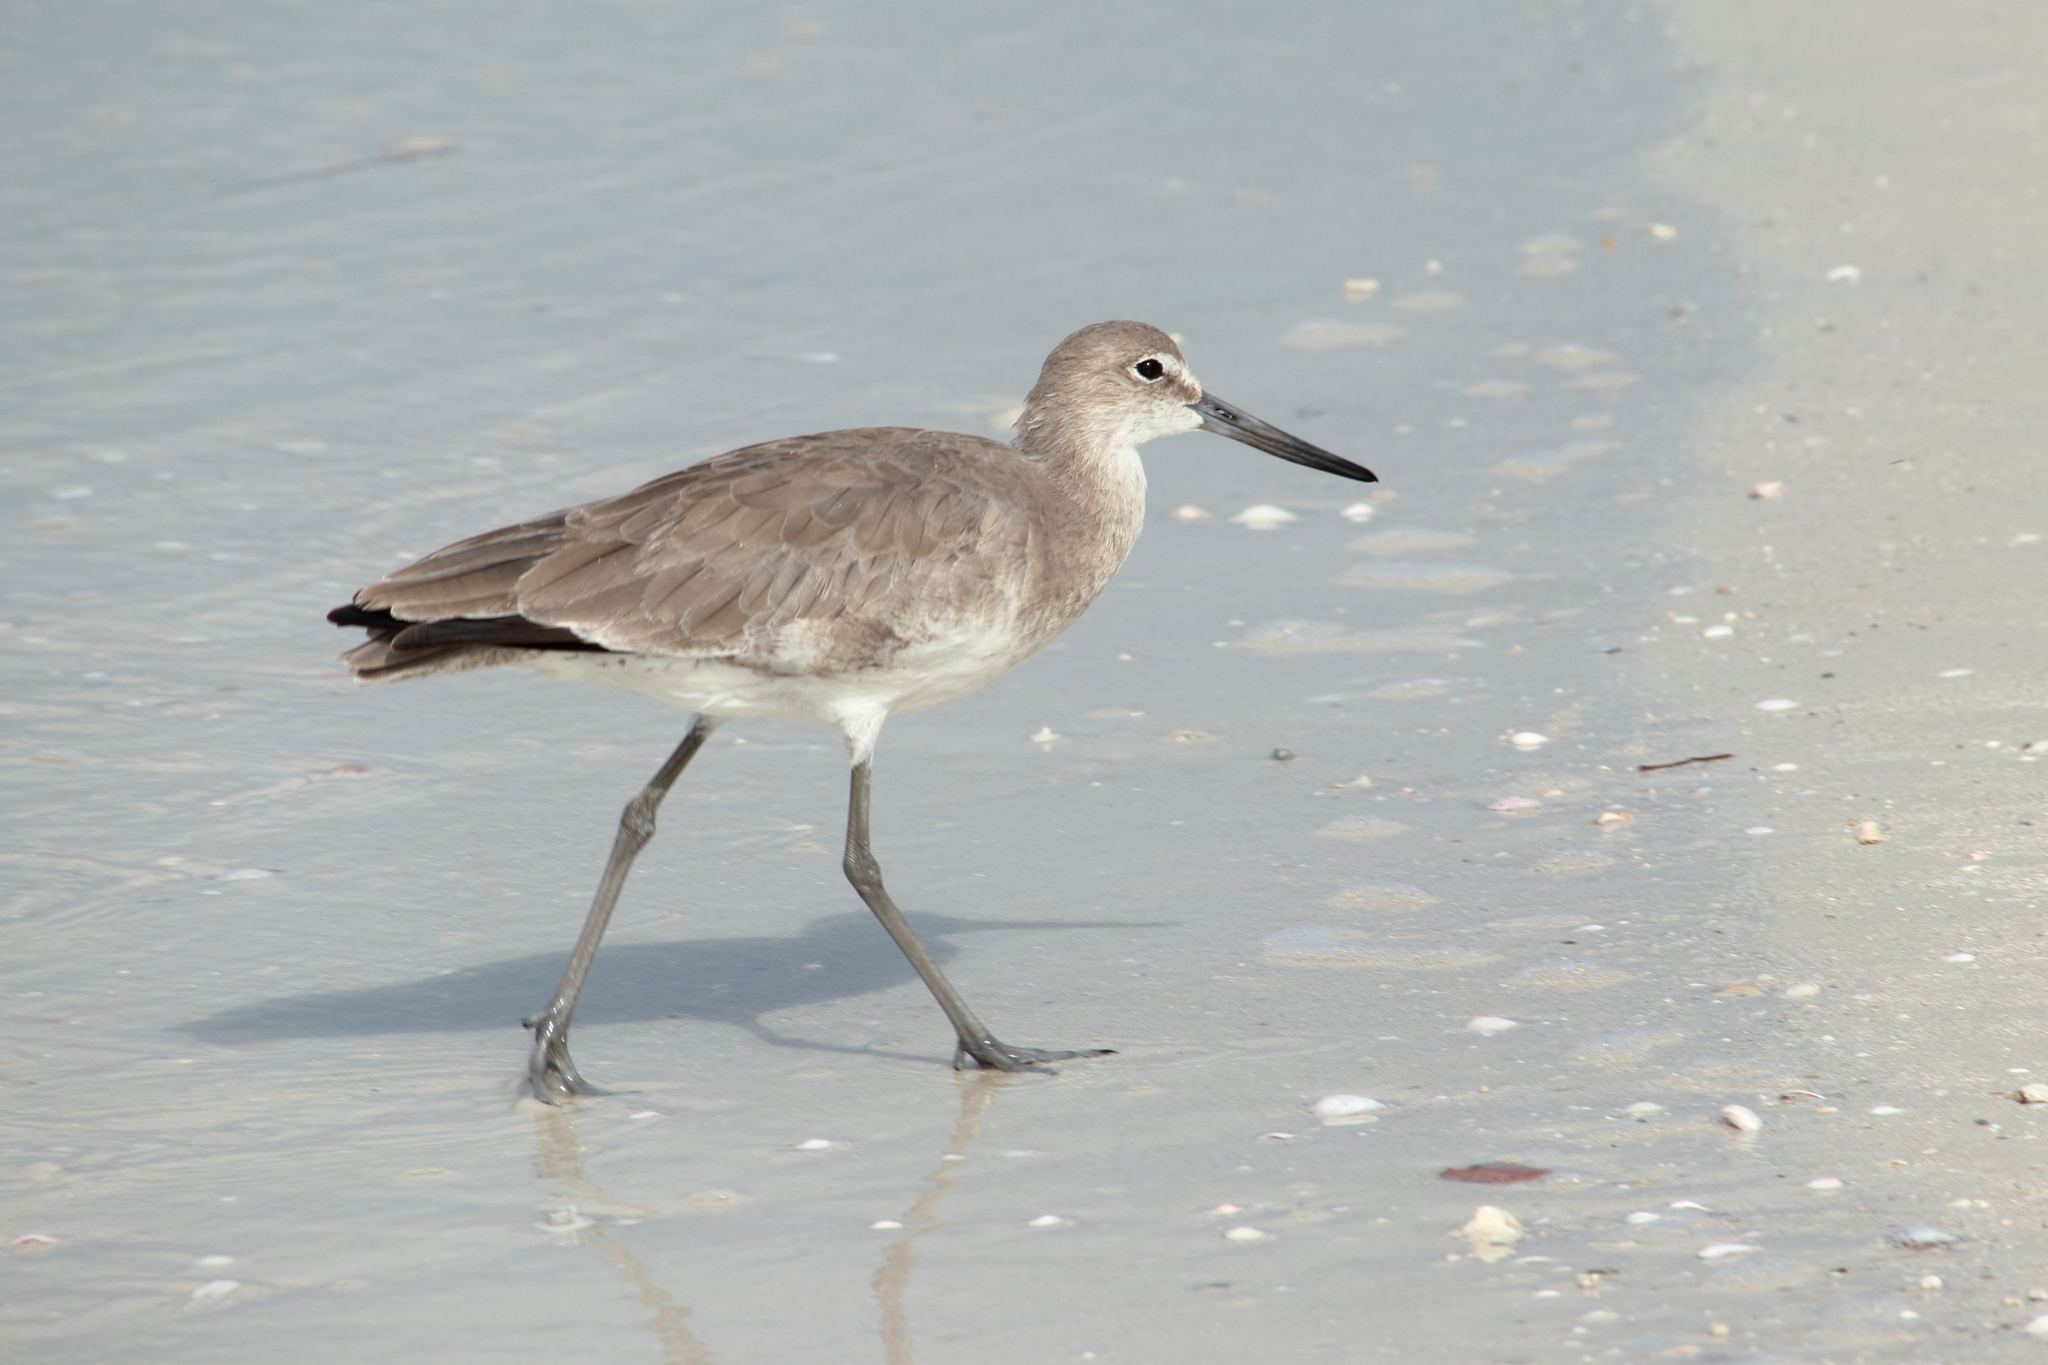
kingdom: Animalia
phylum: Chordata
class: Aves
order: Charadriiformes
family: Scolopacidae
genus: Tringa
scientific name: Tringa semipalmata
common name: Willet
